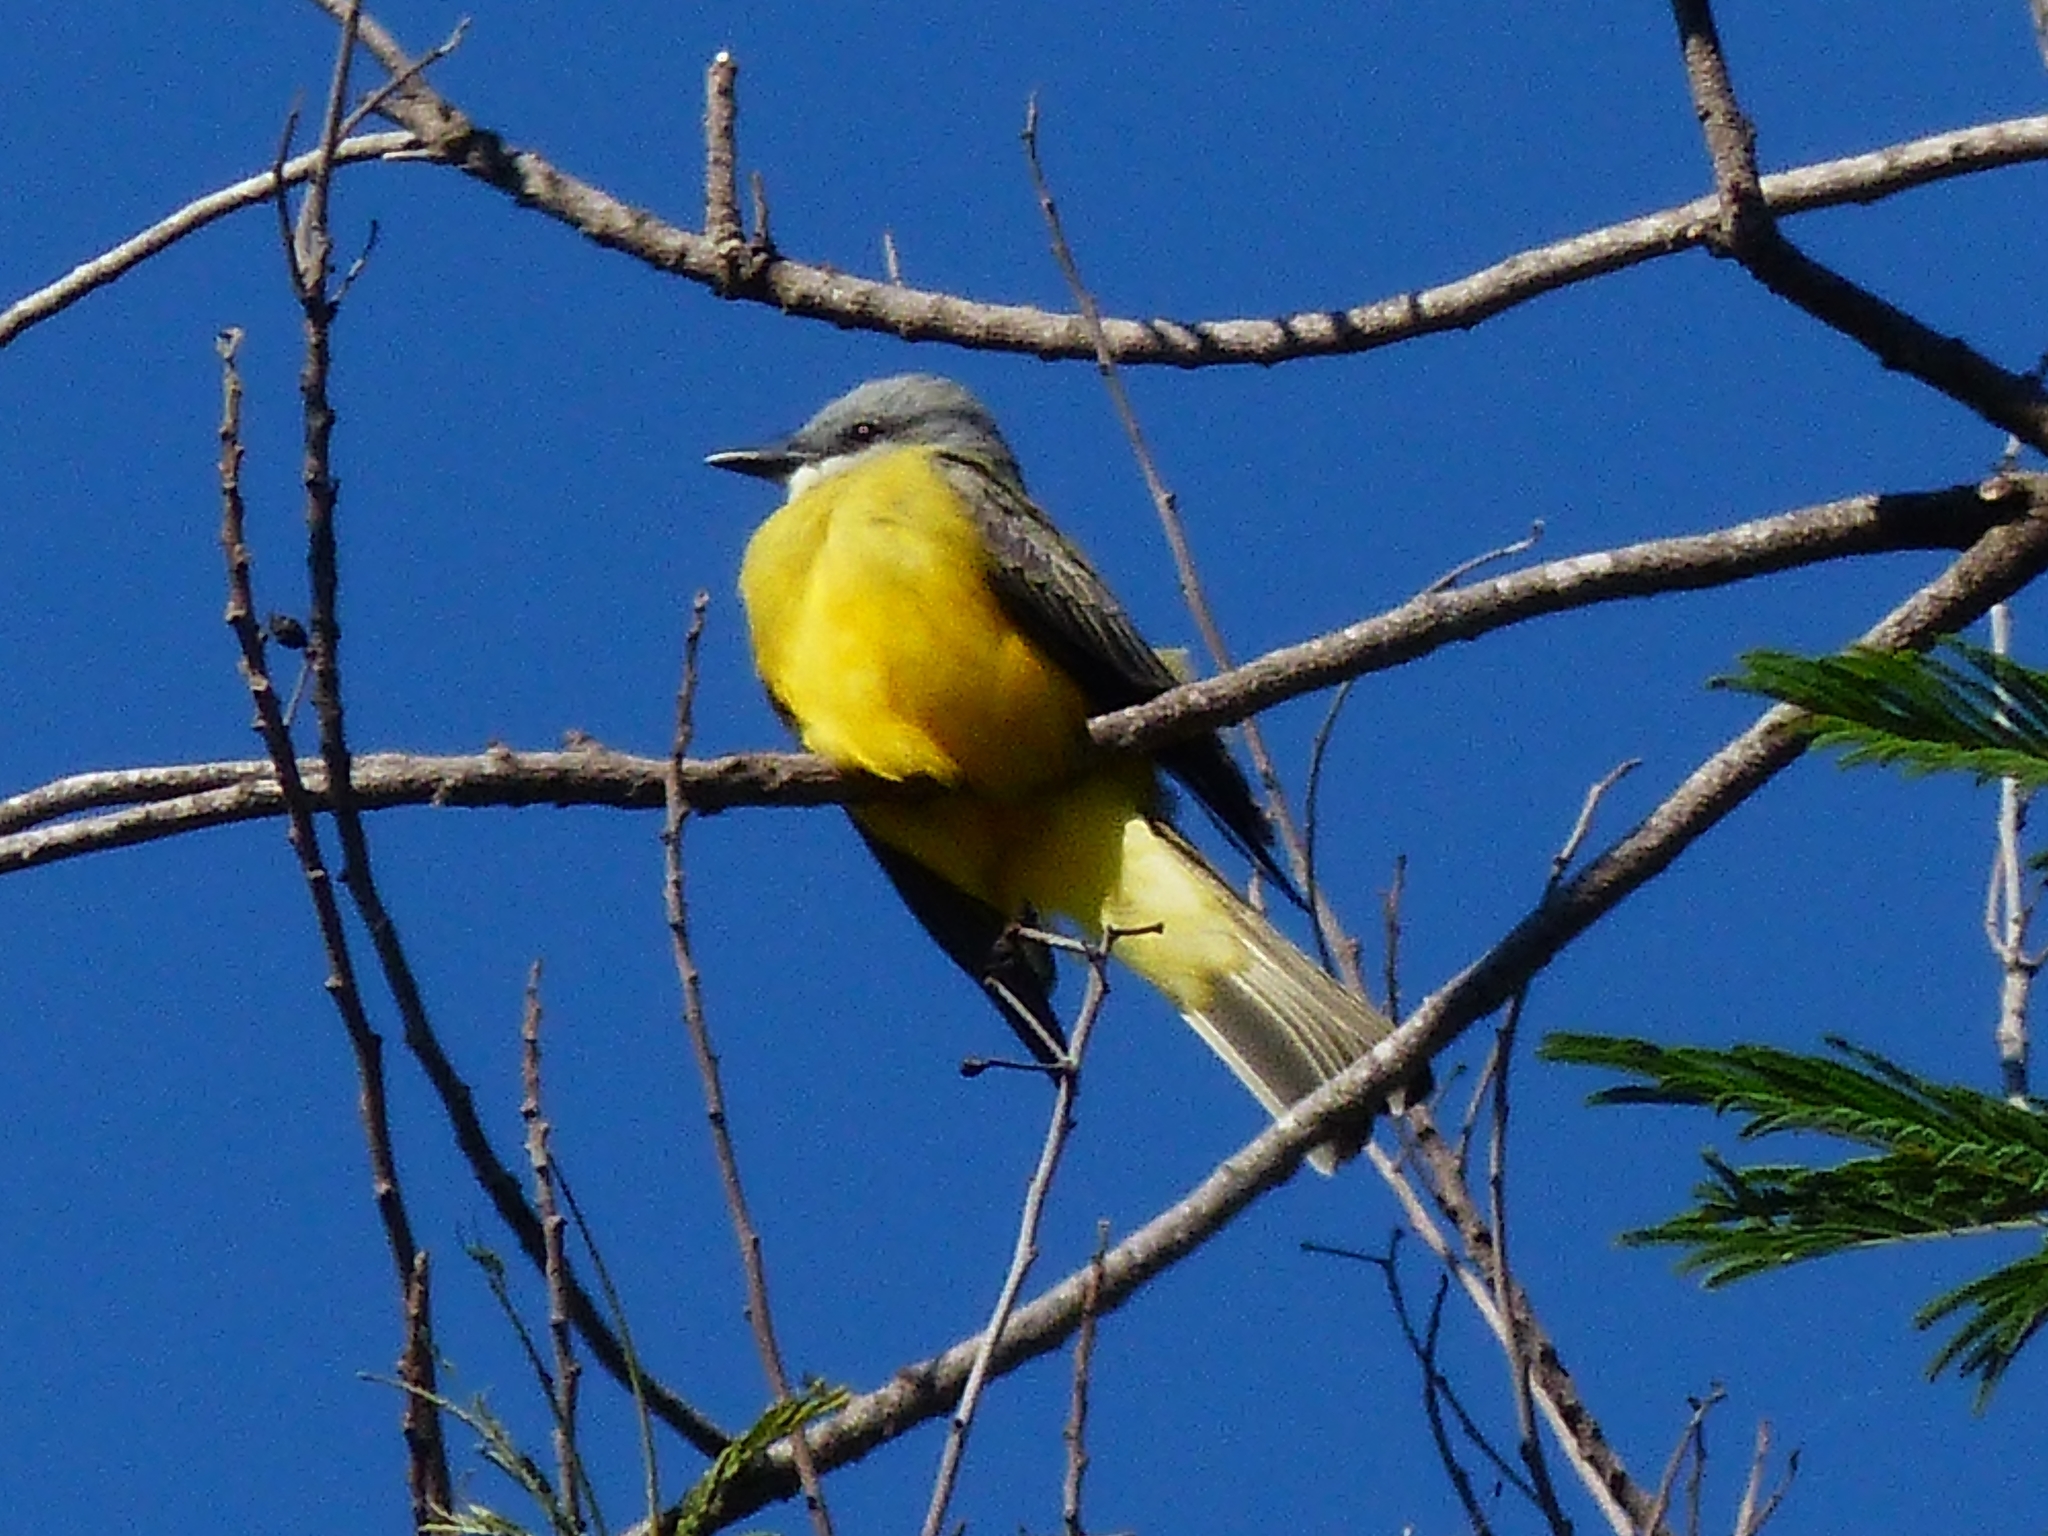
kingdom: Animalia
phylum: Chordata
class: Aves
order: Passeriformes
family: Tyrannidae
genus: Tyrannus
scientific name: Tyrannus
